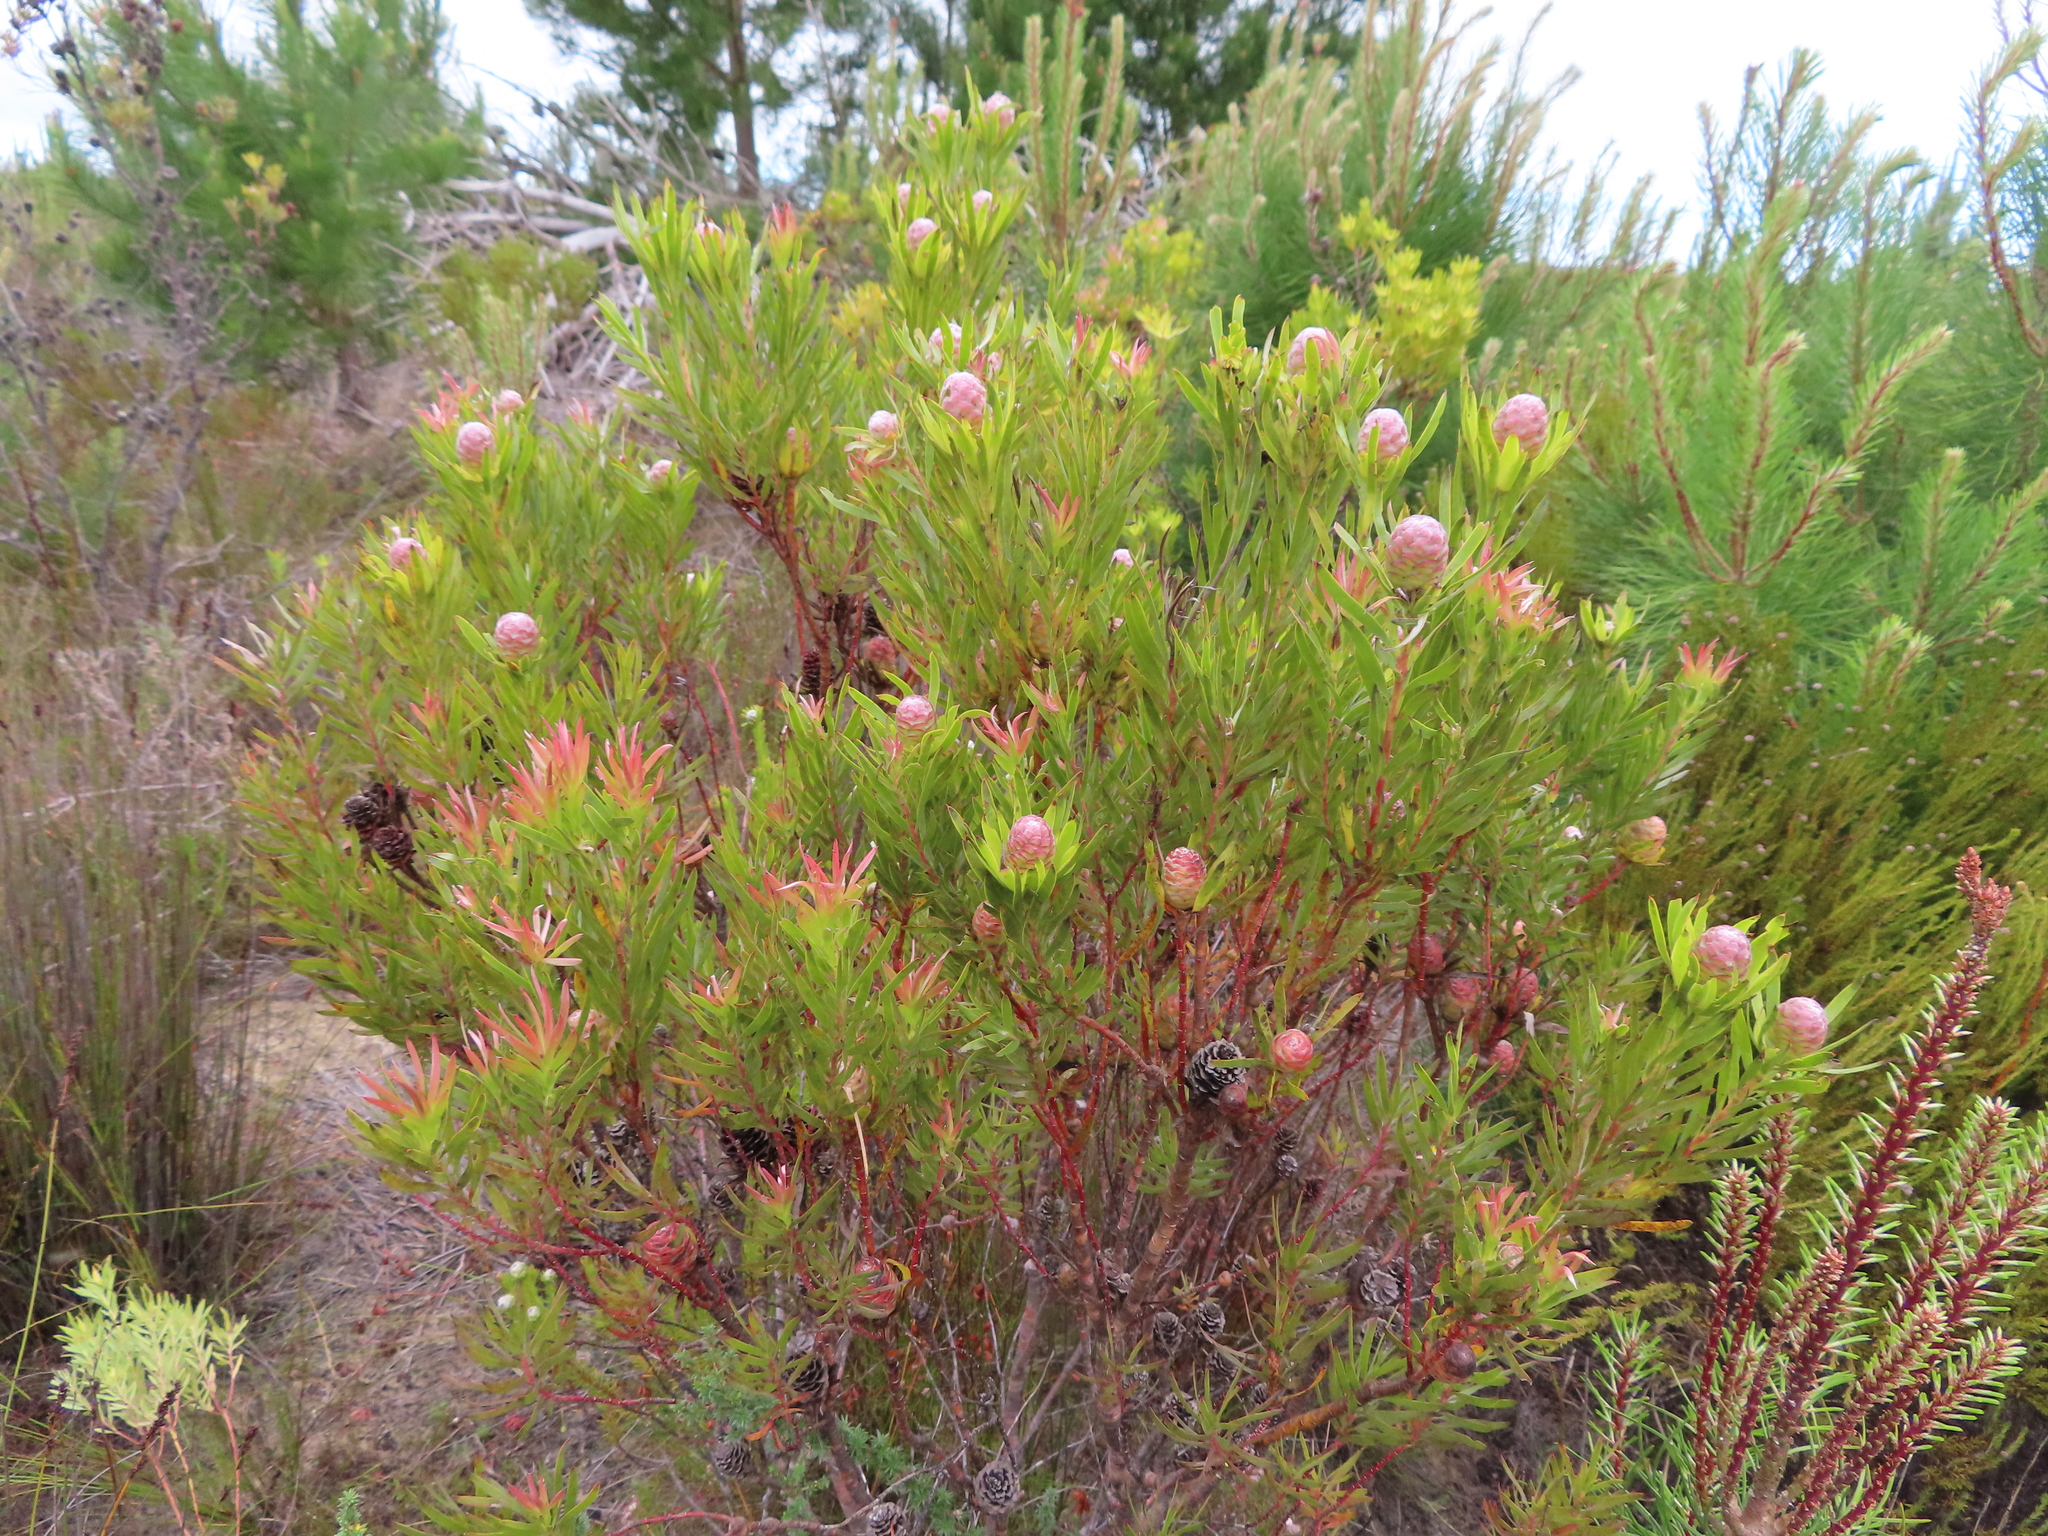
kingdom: Plantae
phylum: Tracheophyta
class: Magnoliopsida
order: Proteales
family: Proteaceae
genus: Leucadendron
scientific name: Leucadendron xanthoconus
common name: Sickle-leaf conebush
